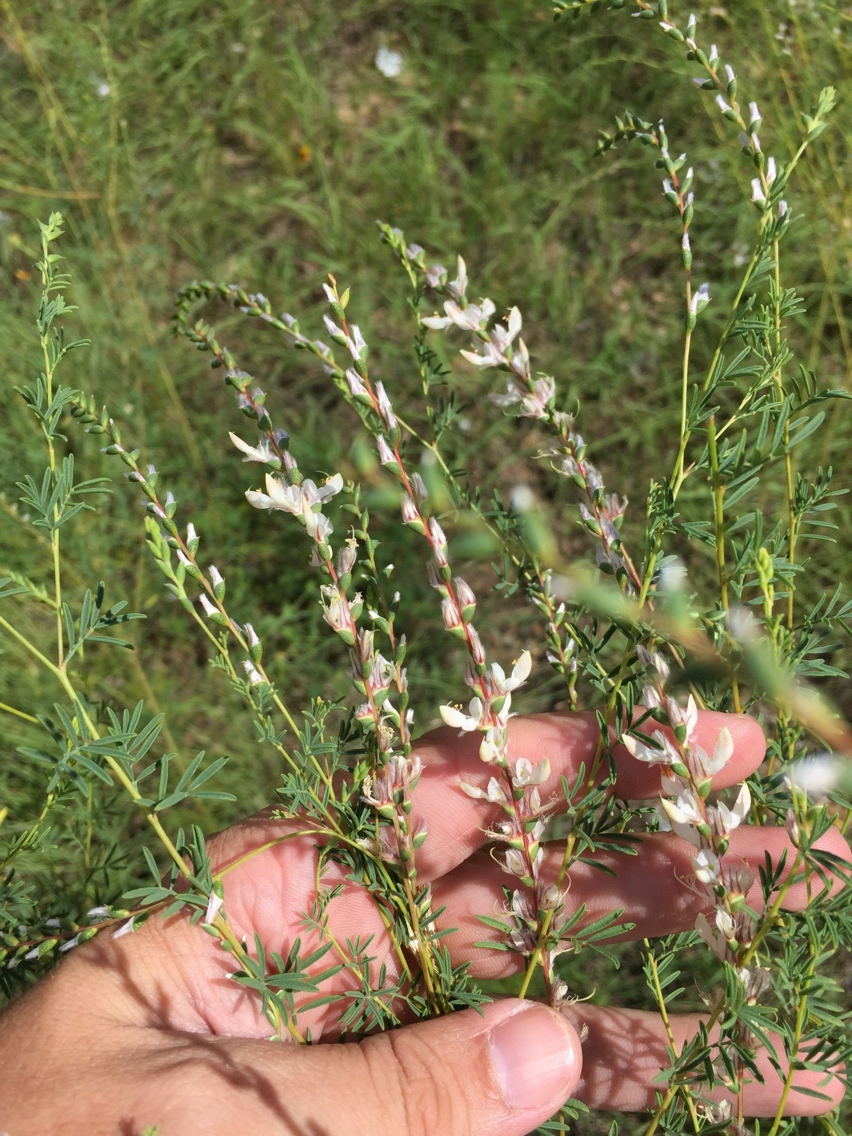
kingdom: Plantae
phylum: Tracheophyta
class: Magnoliopsida
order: Fabales
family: Fabaceae
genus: Dalea
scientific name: Dalea enneandra
